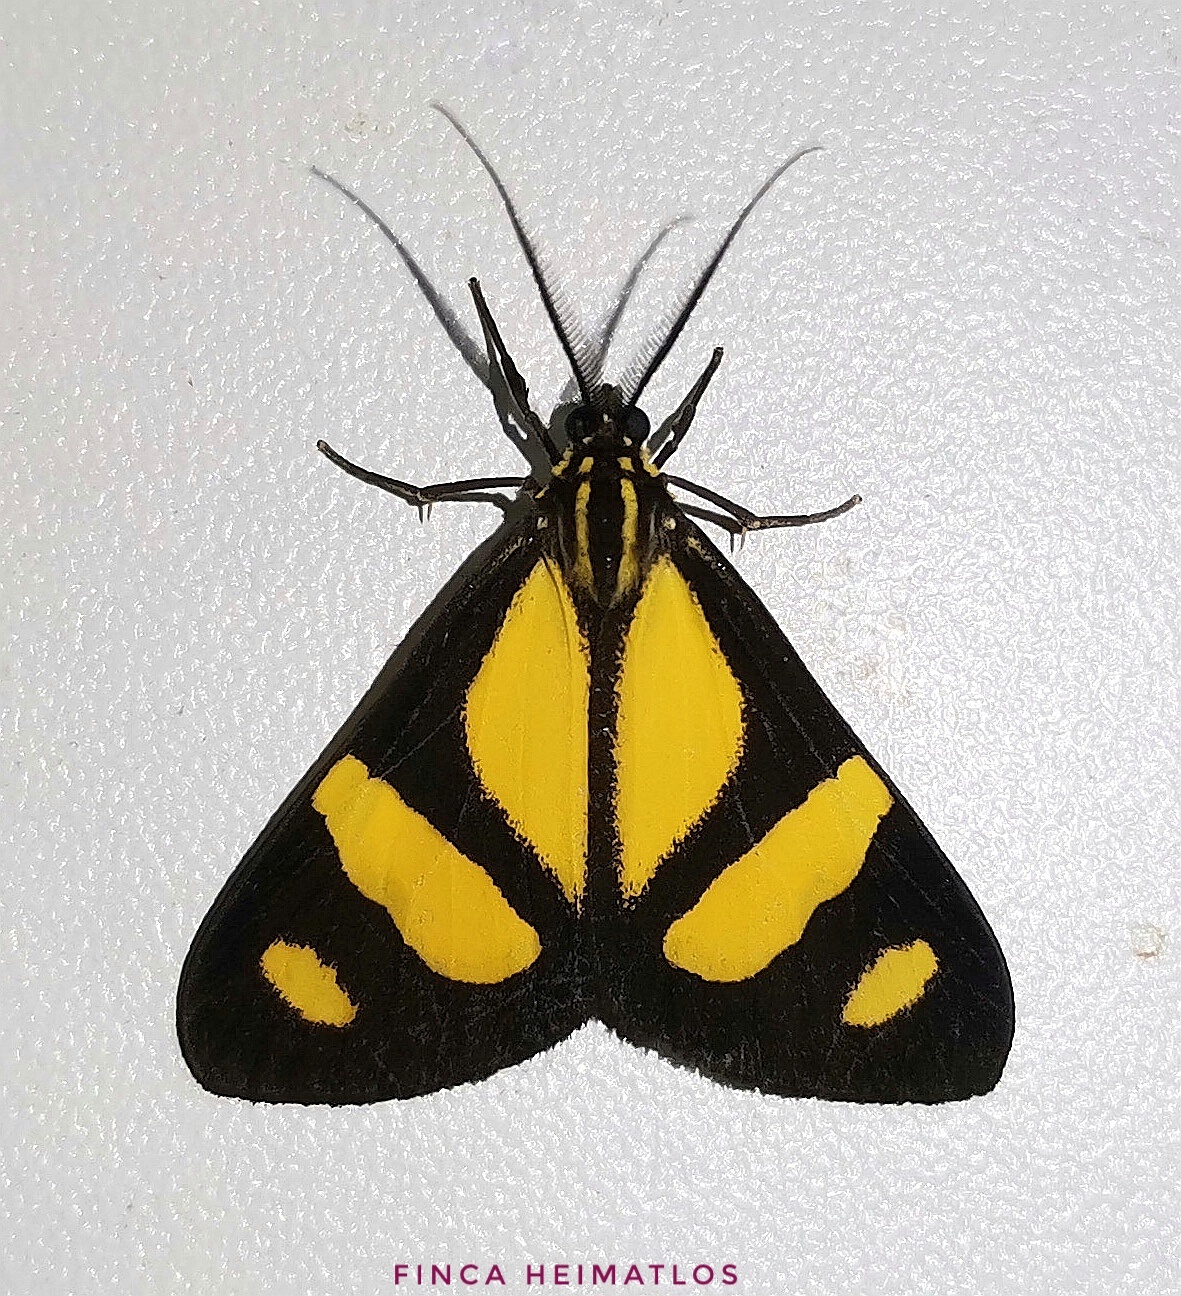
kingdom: Animalia
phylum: Arthropoda
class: Insecta
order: Lepidoptera
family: Notodontidae
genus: Phaeochlaena
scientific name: Phaeochlaena solilucis
